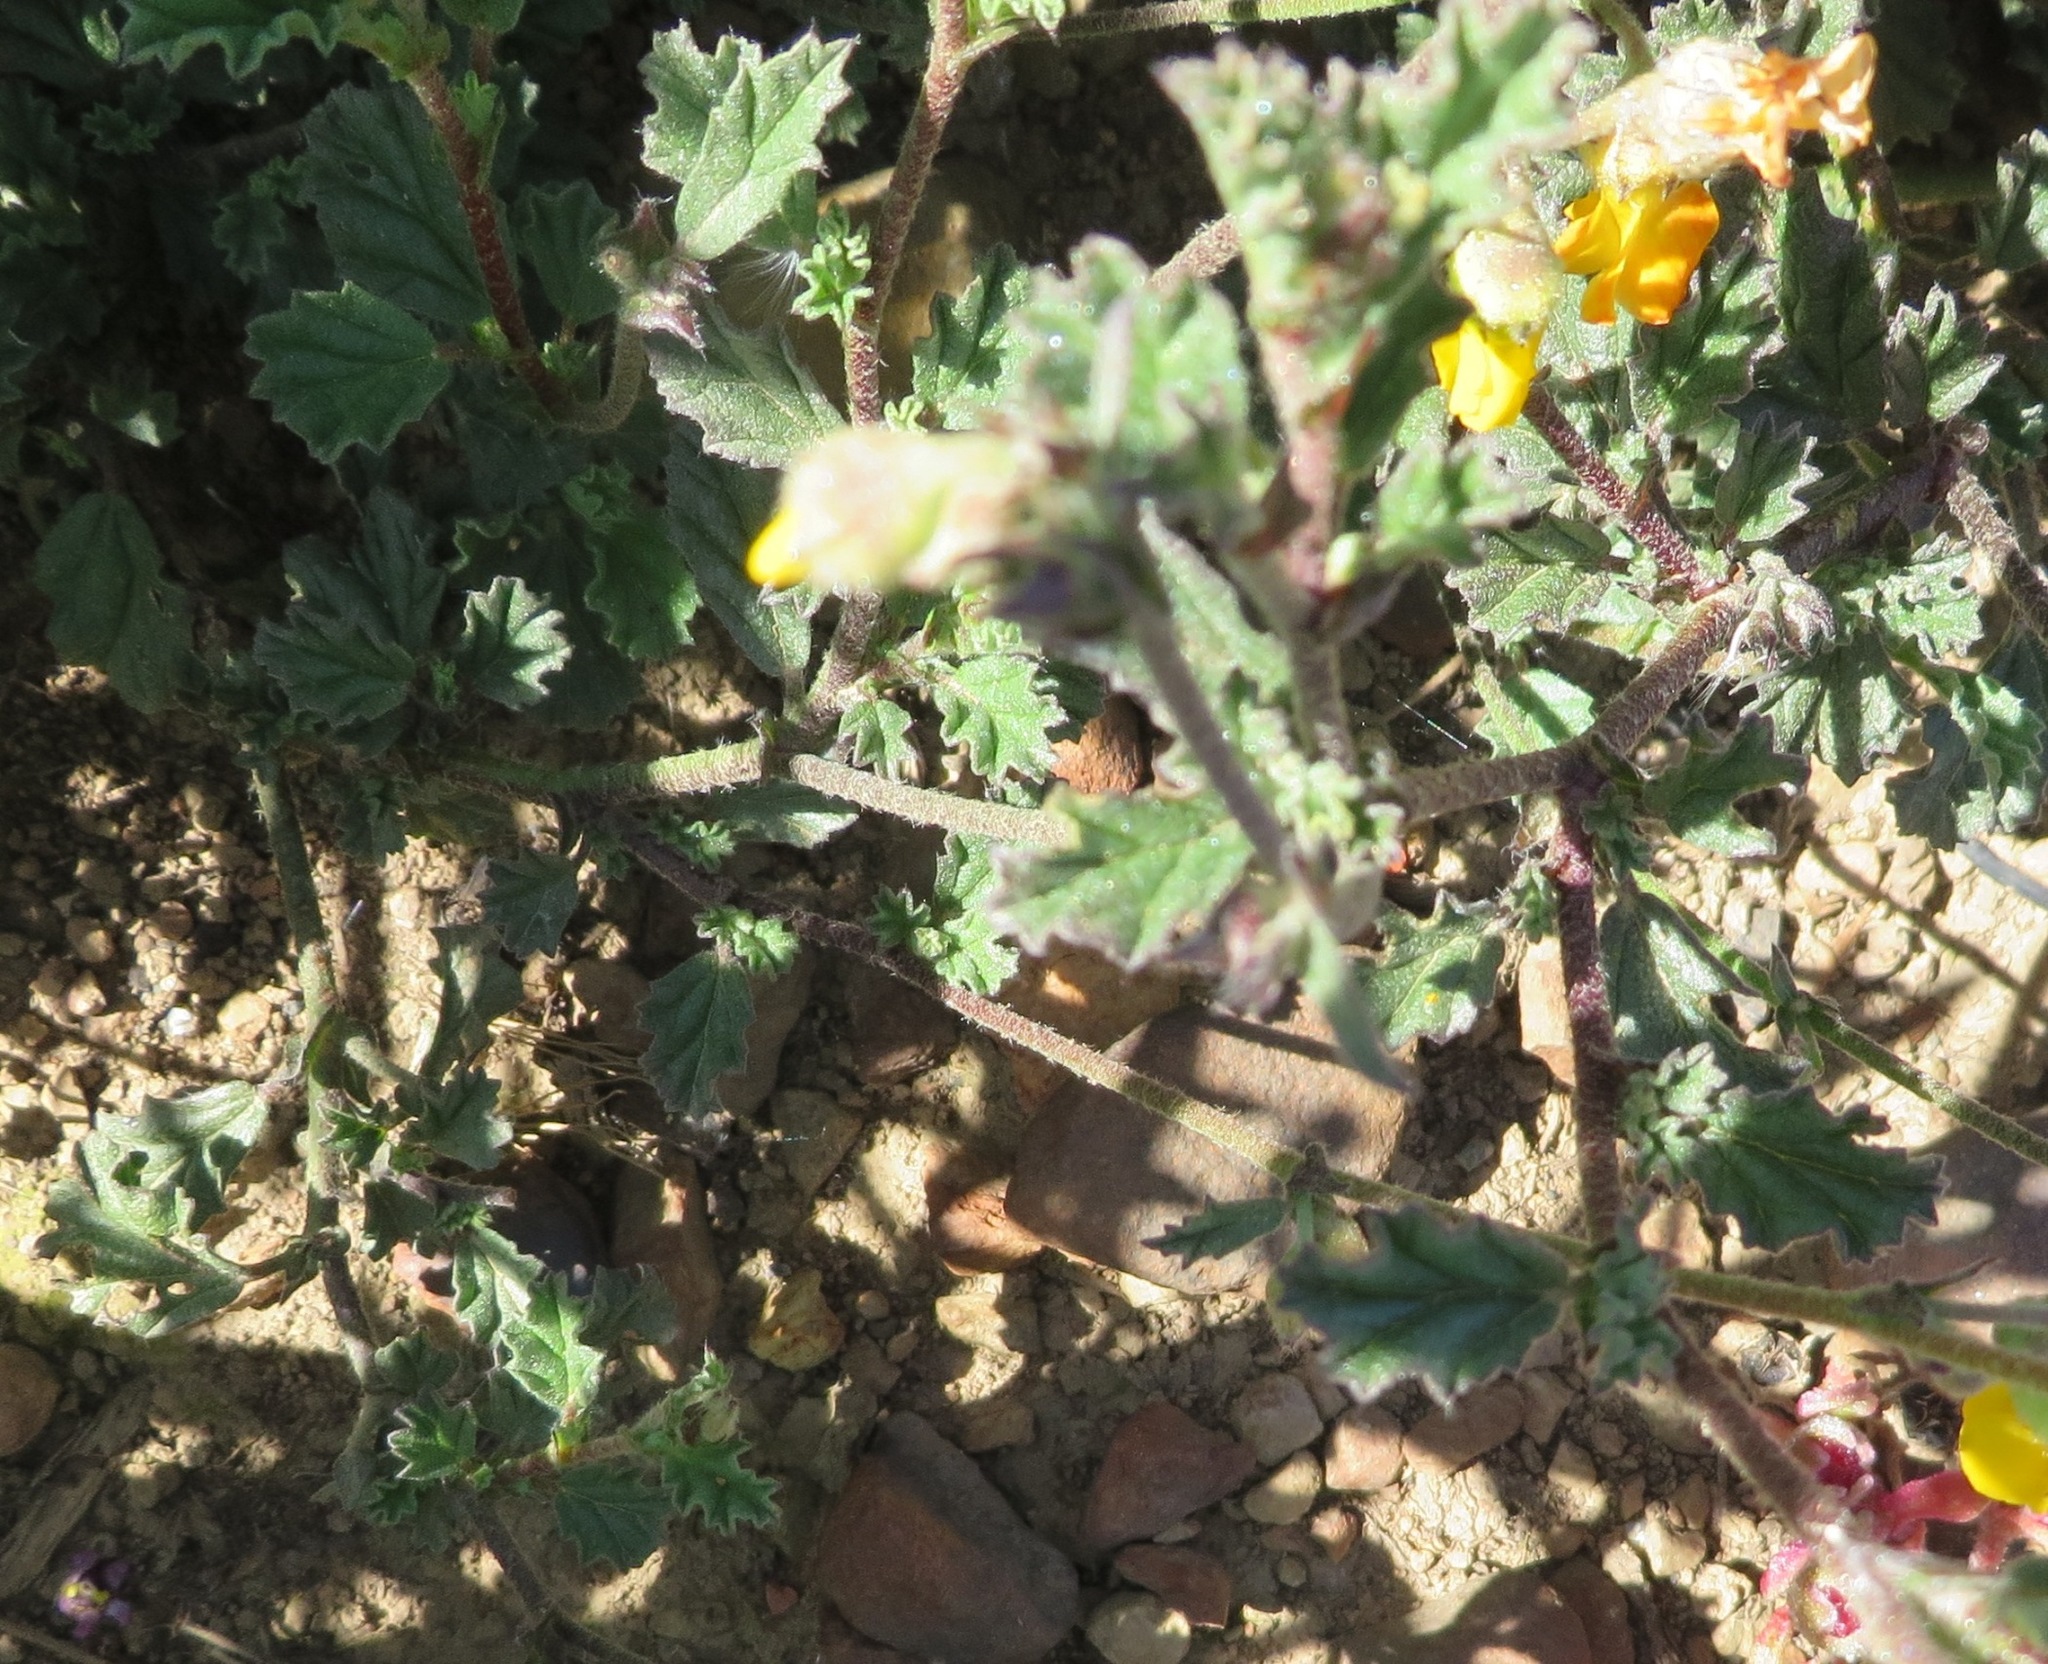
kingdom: Plantae
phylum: Tracheophyta
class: Magnoliopsida
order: Malvales
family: Malvaceae
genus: Hermannia
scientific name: Hermannia alnifolia
